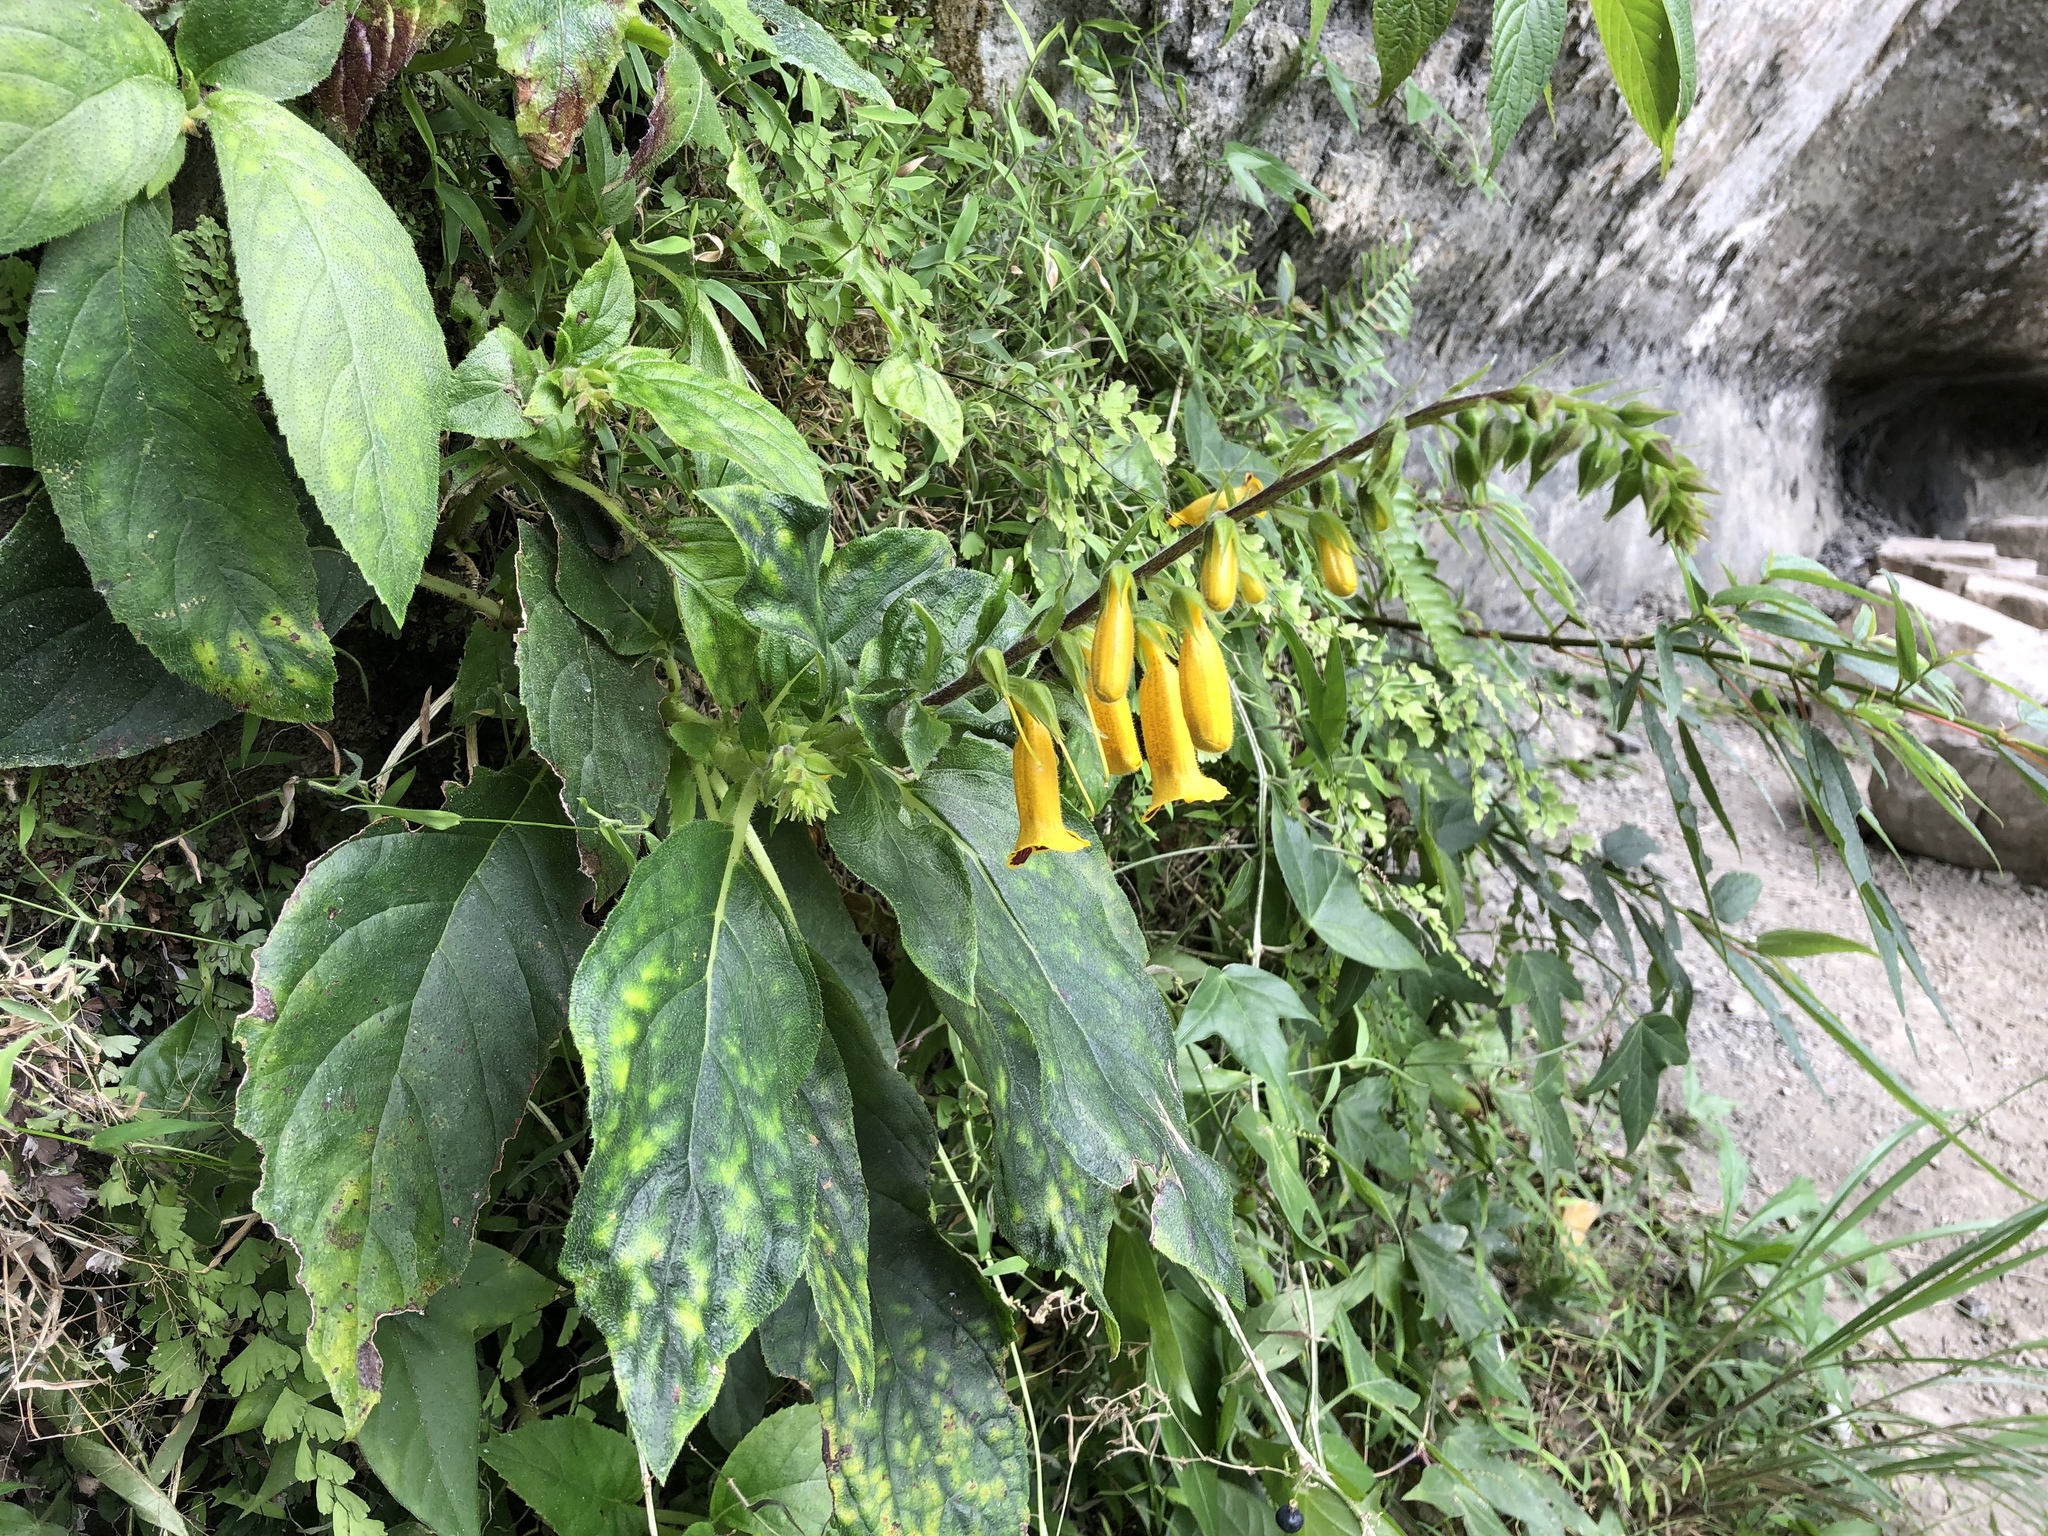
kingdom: Plantae
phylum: Tracheophyta
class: Magnoliopsida
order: Lamiales
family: Gesneriaceae
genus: Titanotrichum
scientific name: Titanotrichum oldhamii
